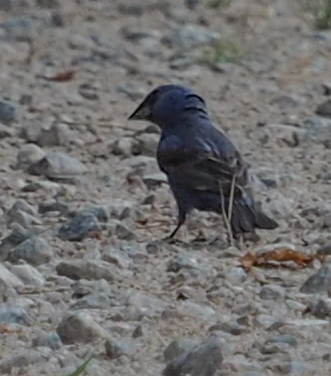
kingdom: Animalia
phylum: Chordata
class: Aves
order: Passeriformes
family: Cardinalidae
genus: Passerina
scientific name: Passerina caerulea
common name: Blue grosbeak
